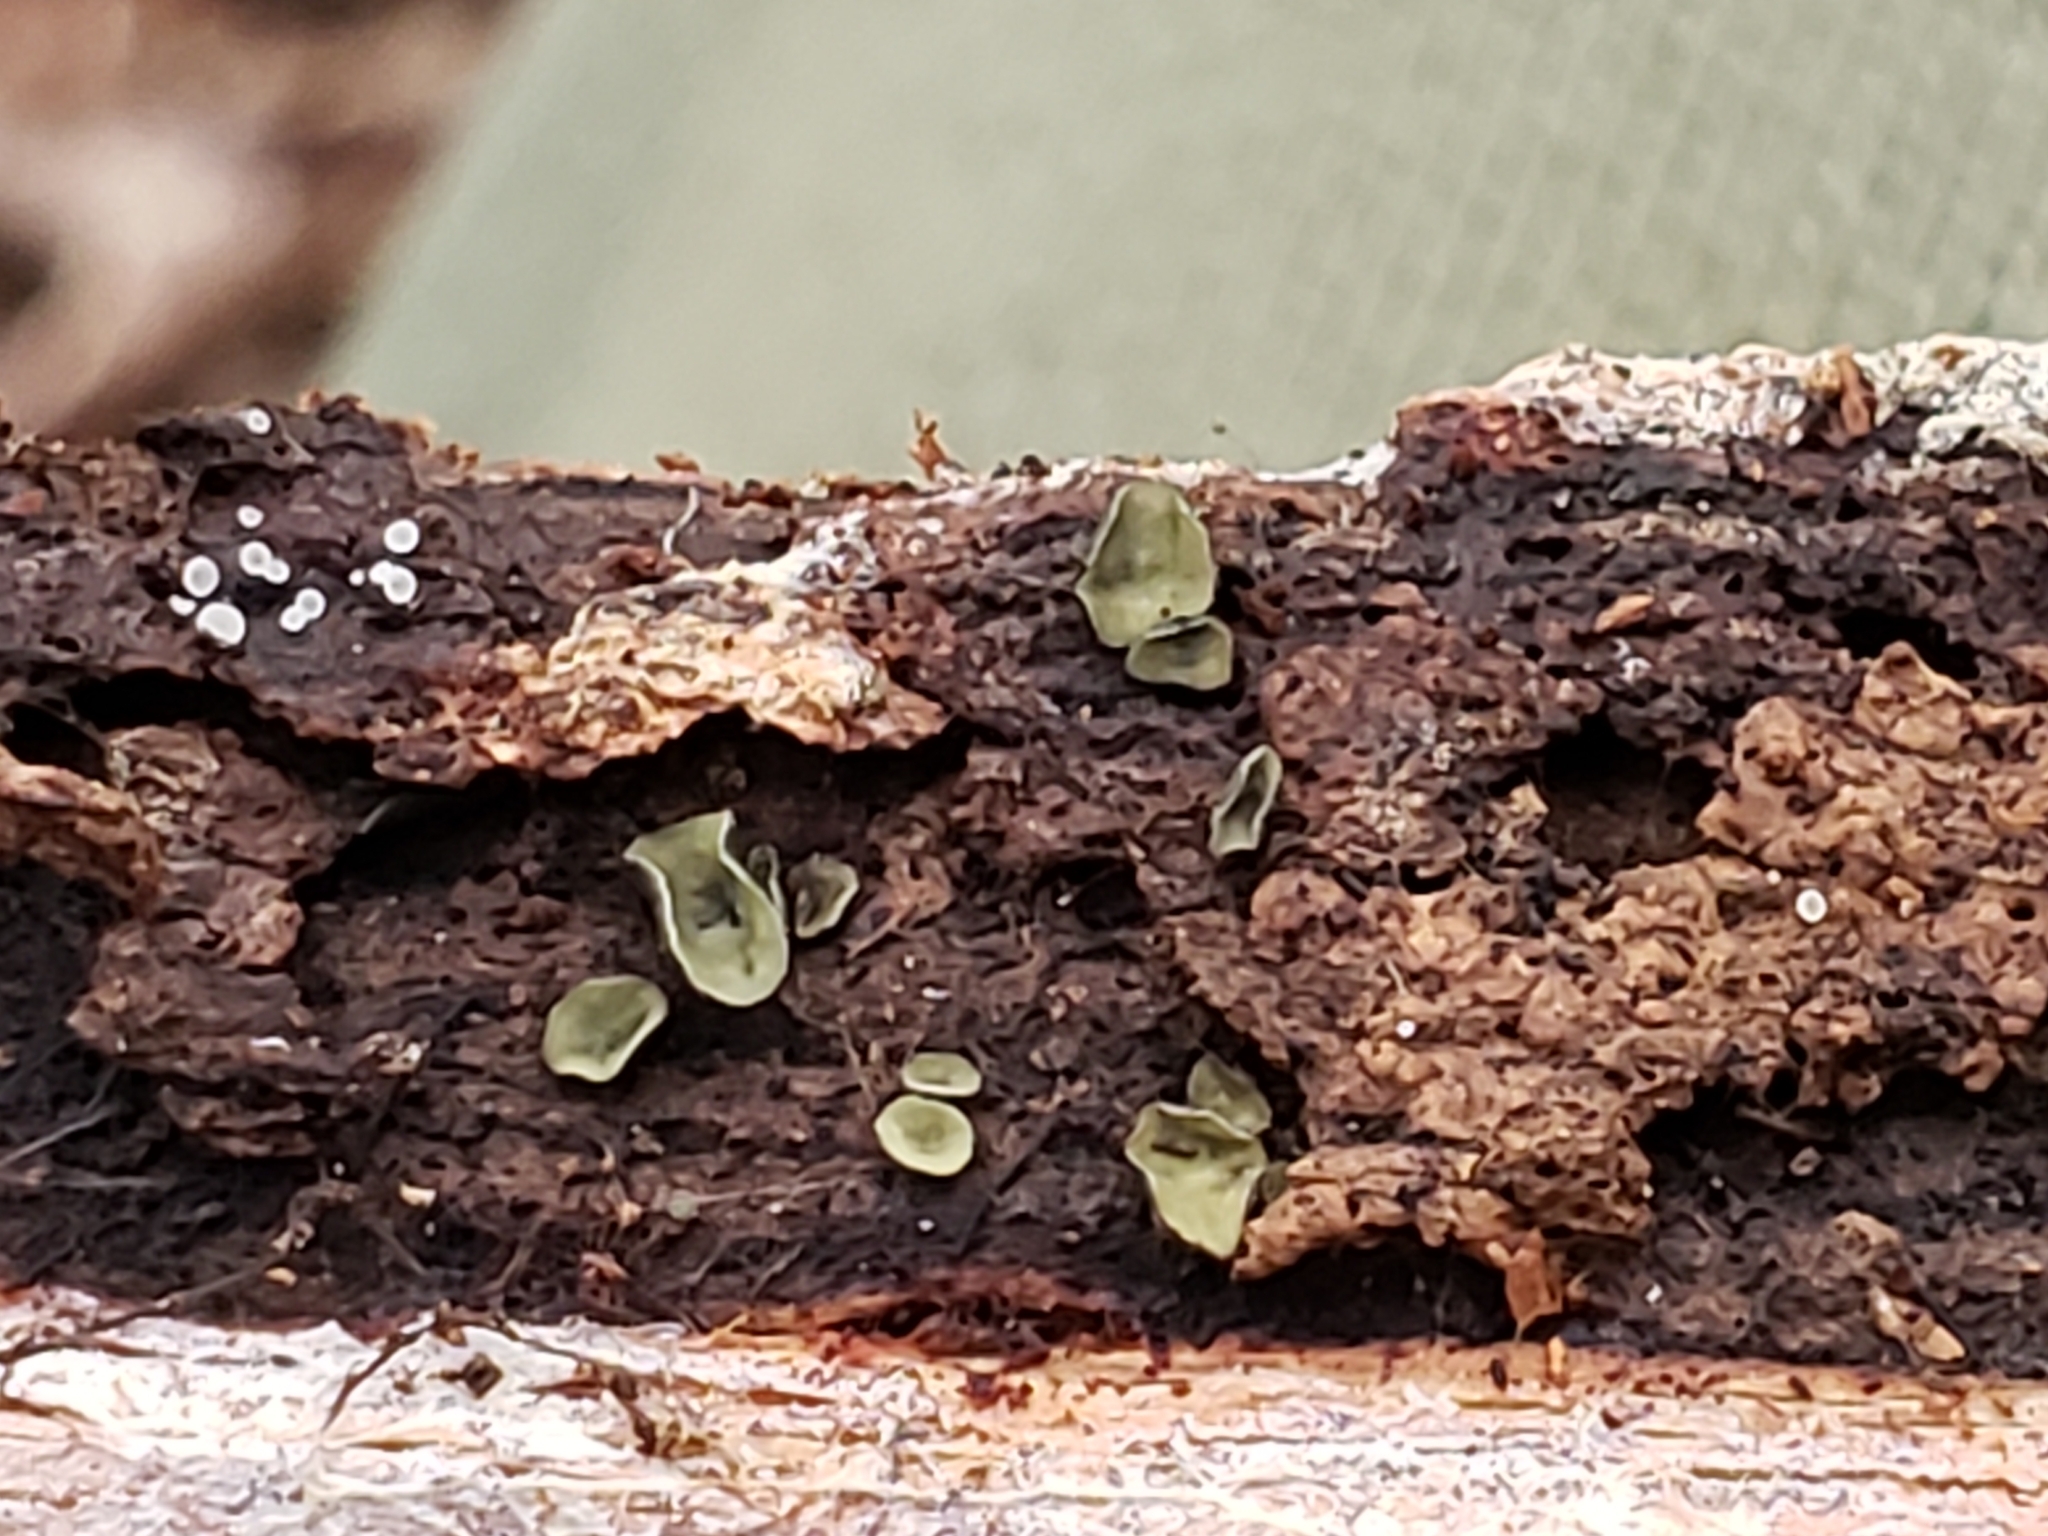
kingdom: Fungi
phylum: Ascomycota
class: Leotiomycetes
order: Helotiales
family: Chlorospleniaceae
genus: Chlorosplenium
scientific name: Chlorosplenium chlora
